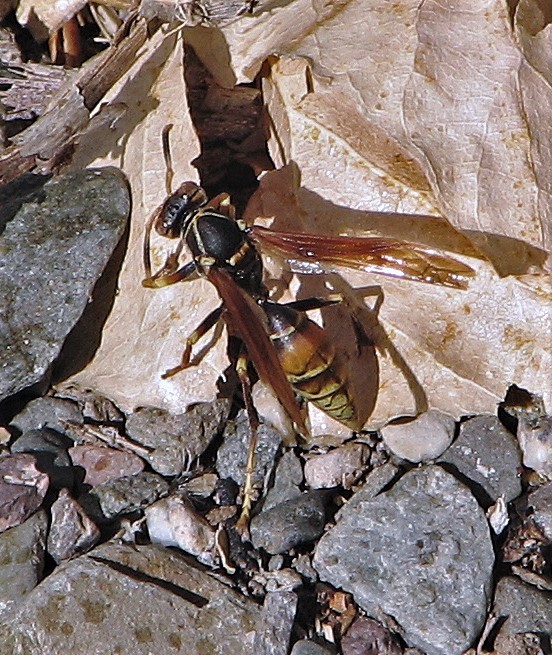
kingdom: Animalia
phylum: Arthropoda
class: Insecta
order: Hymenoptera
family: Eumenidae
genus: Polistes
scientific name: Polistes buyssoni
